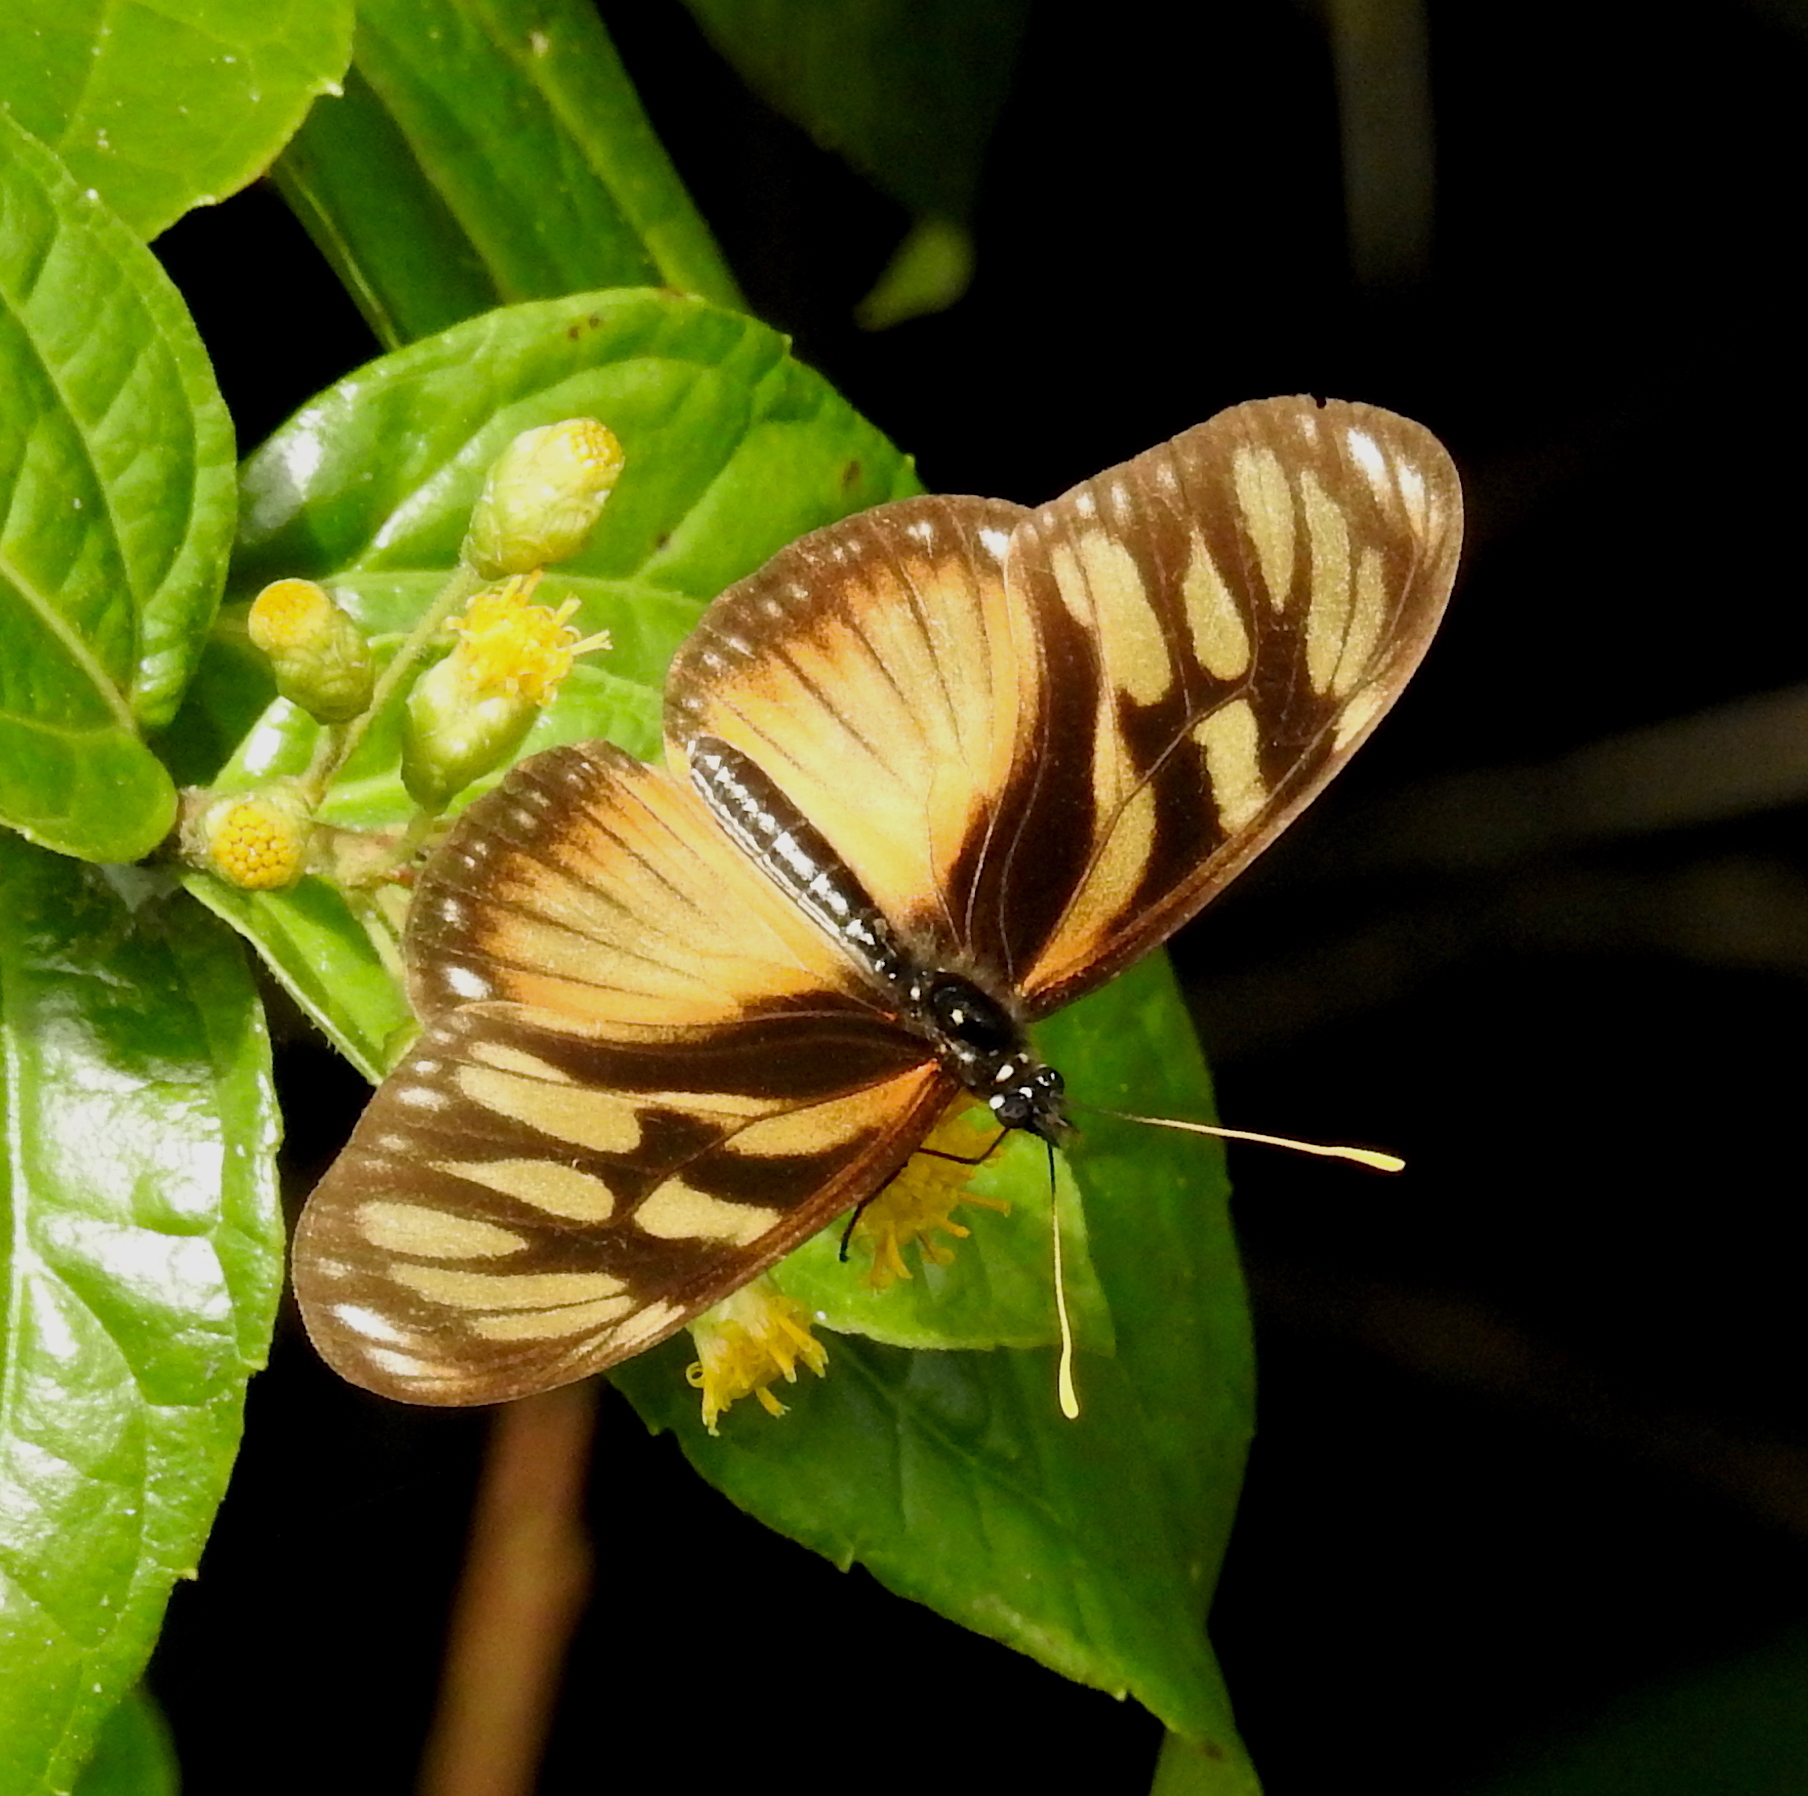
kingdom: Animalia
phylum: Arthropoda
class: Insecta
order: Lepidoptera
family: Nymphalidae
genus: Eueides
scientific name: Eueides procula
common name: Nonpassionate heliconian
